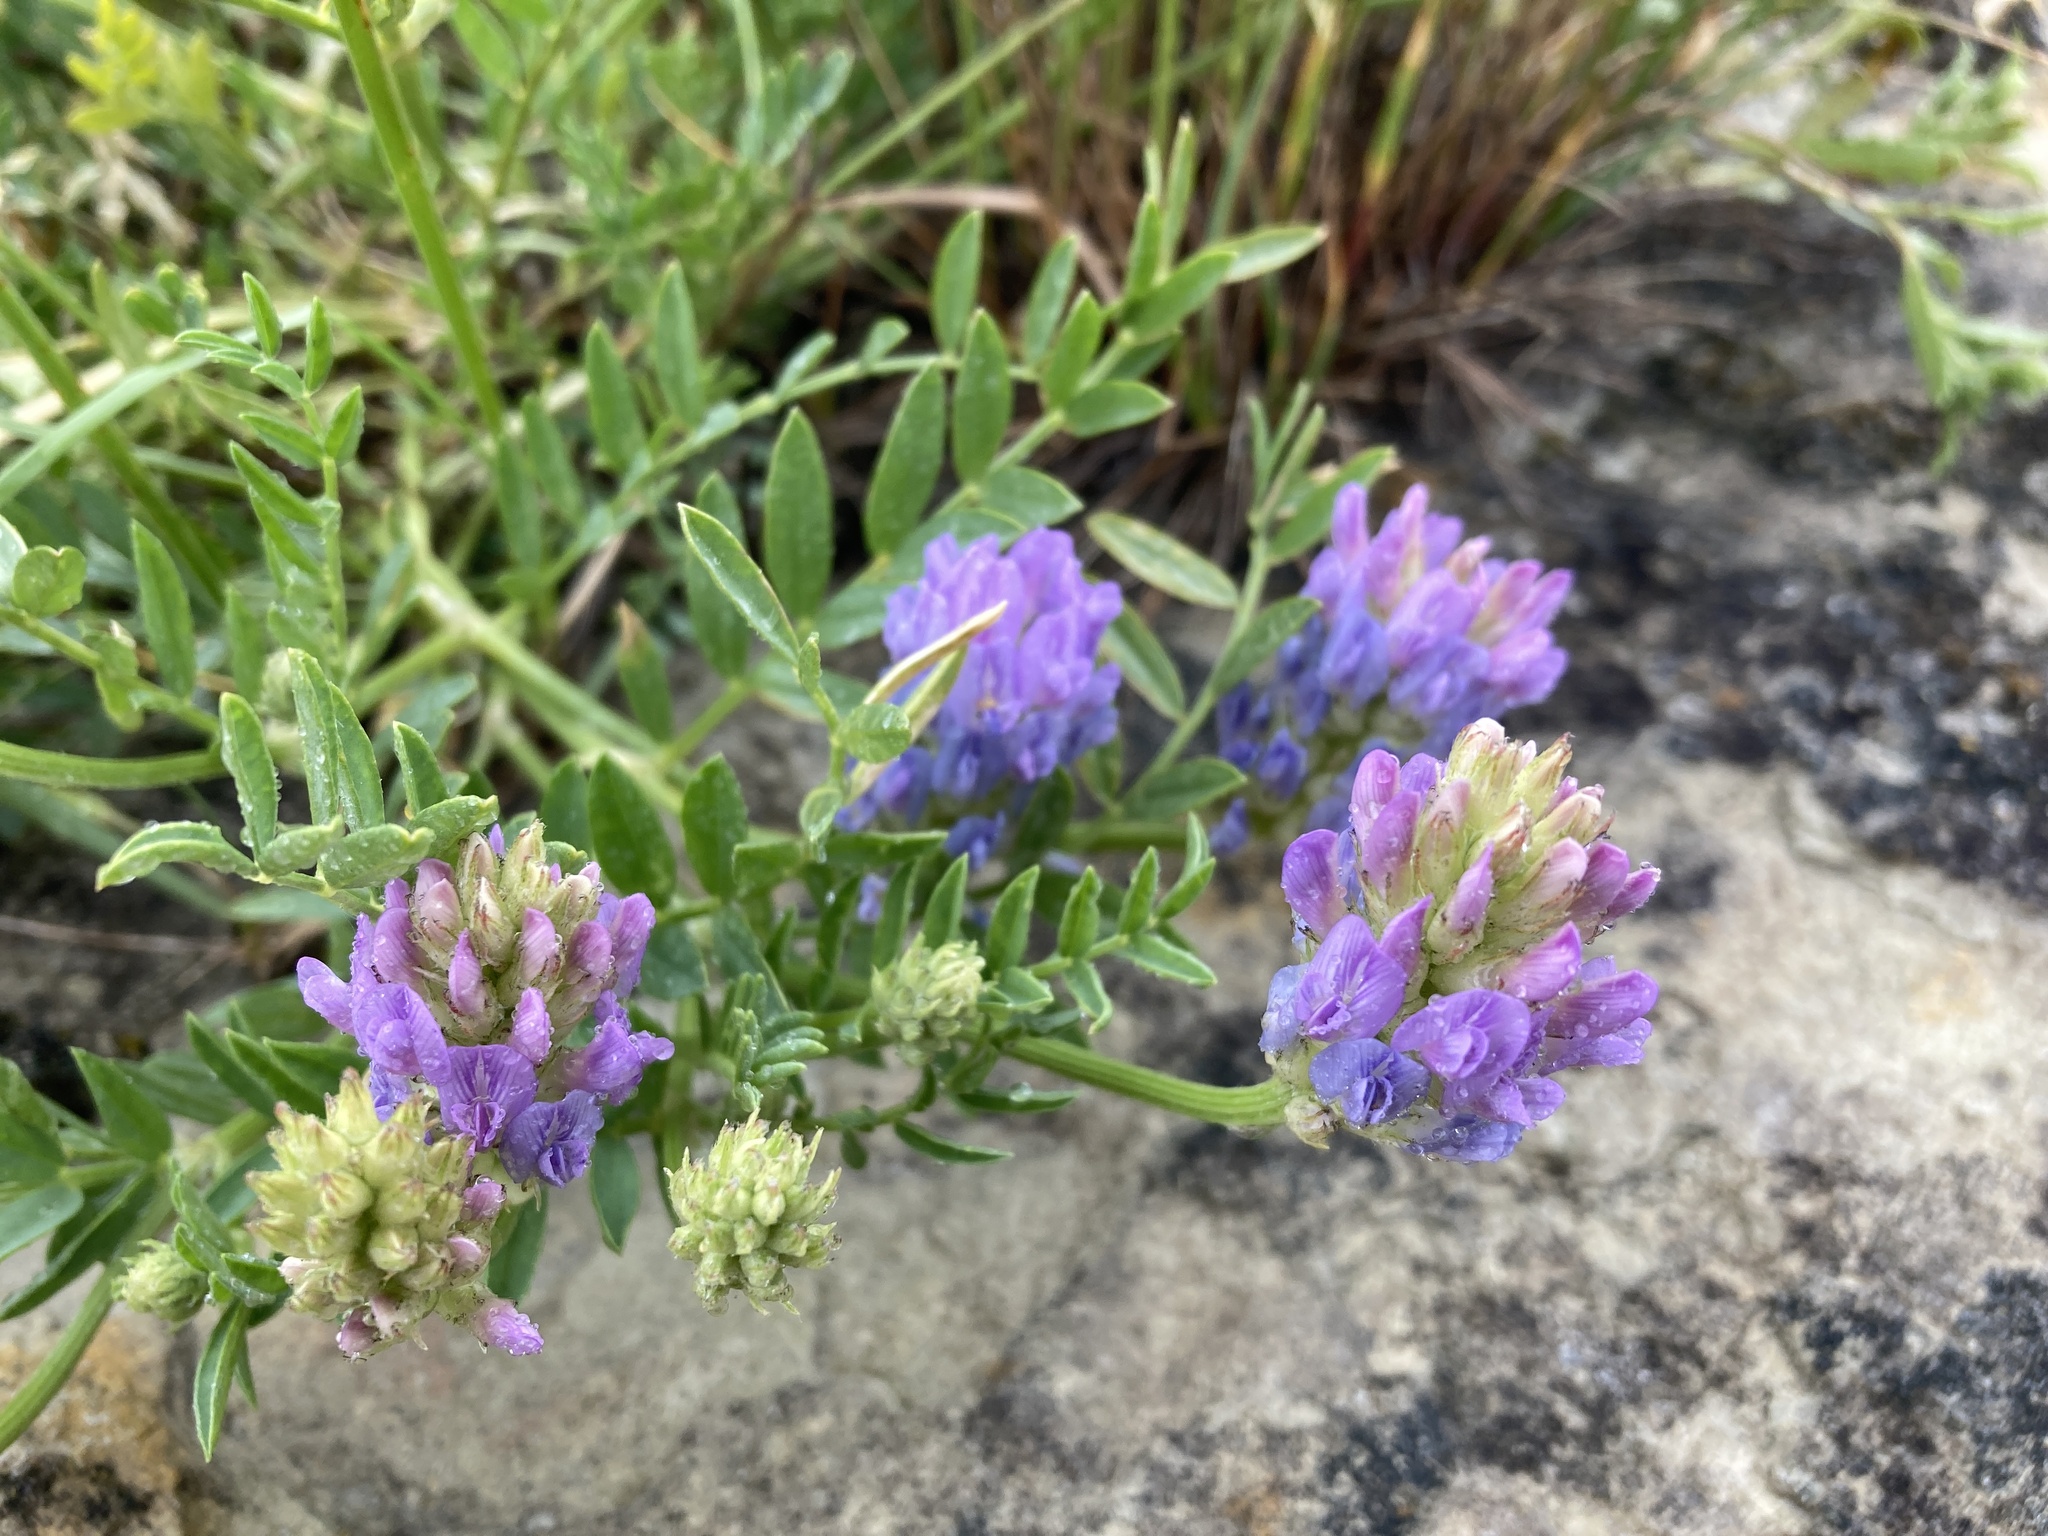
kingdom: Plantae
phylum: Tracheophyta
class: Magnoliopsida
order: Fabales
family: Fabaceae
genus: Astragalus
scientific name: Astragalus laxmannii
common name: Laxmann's milk-vetch
